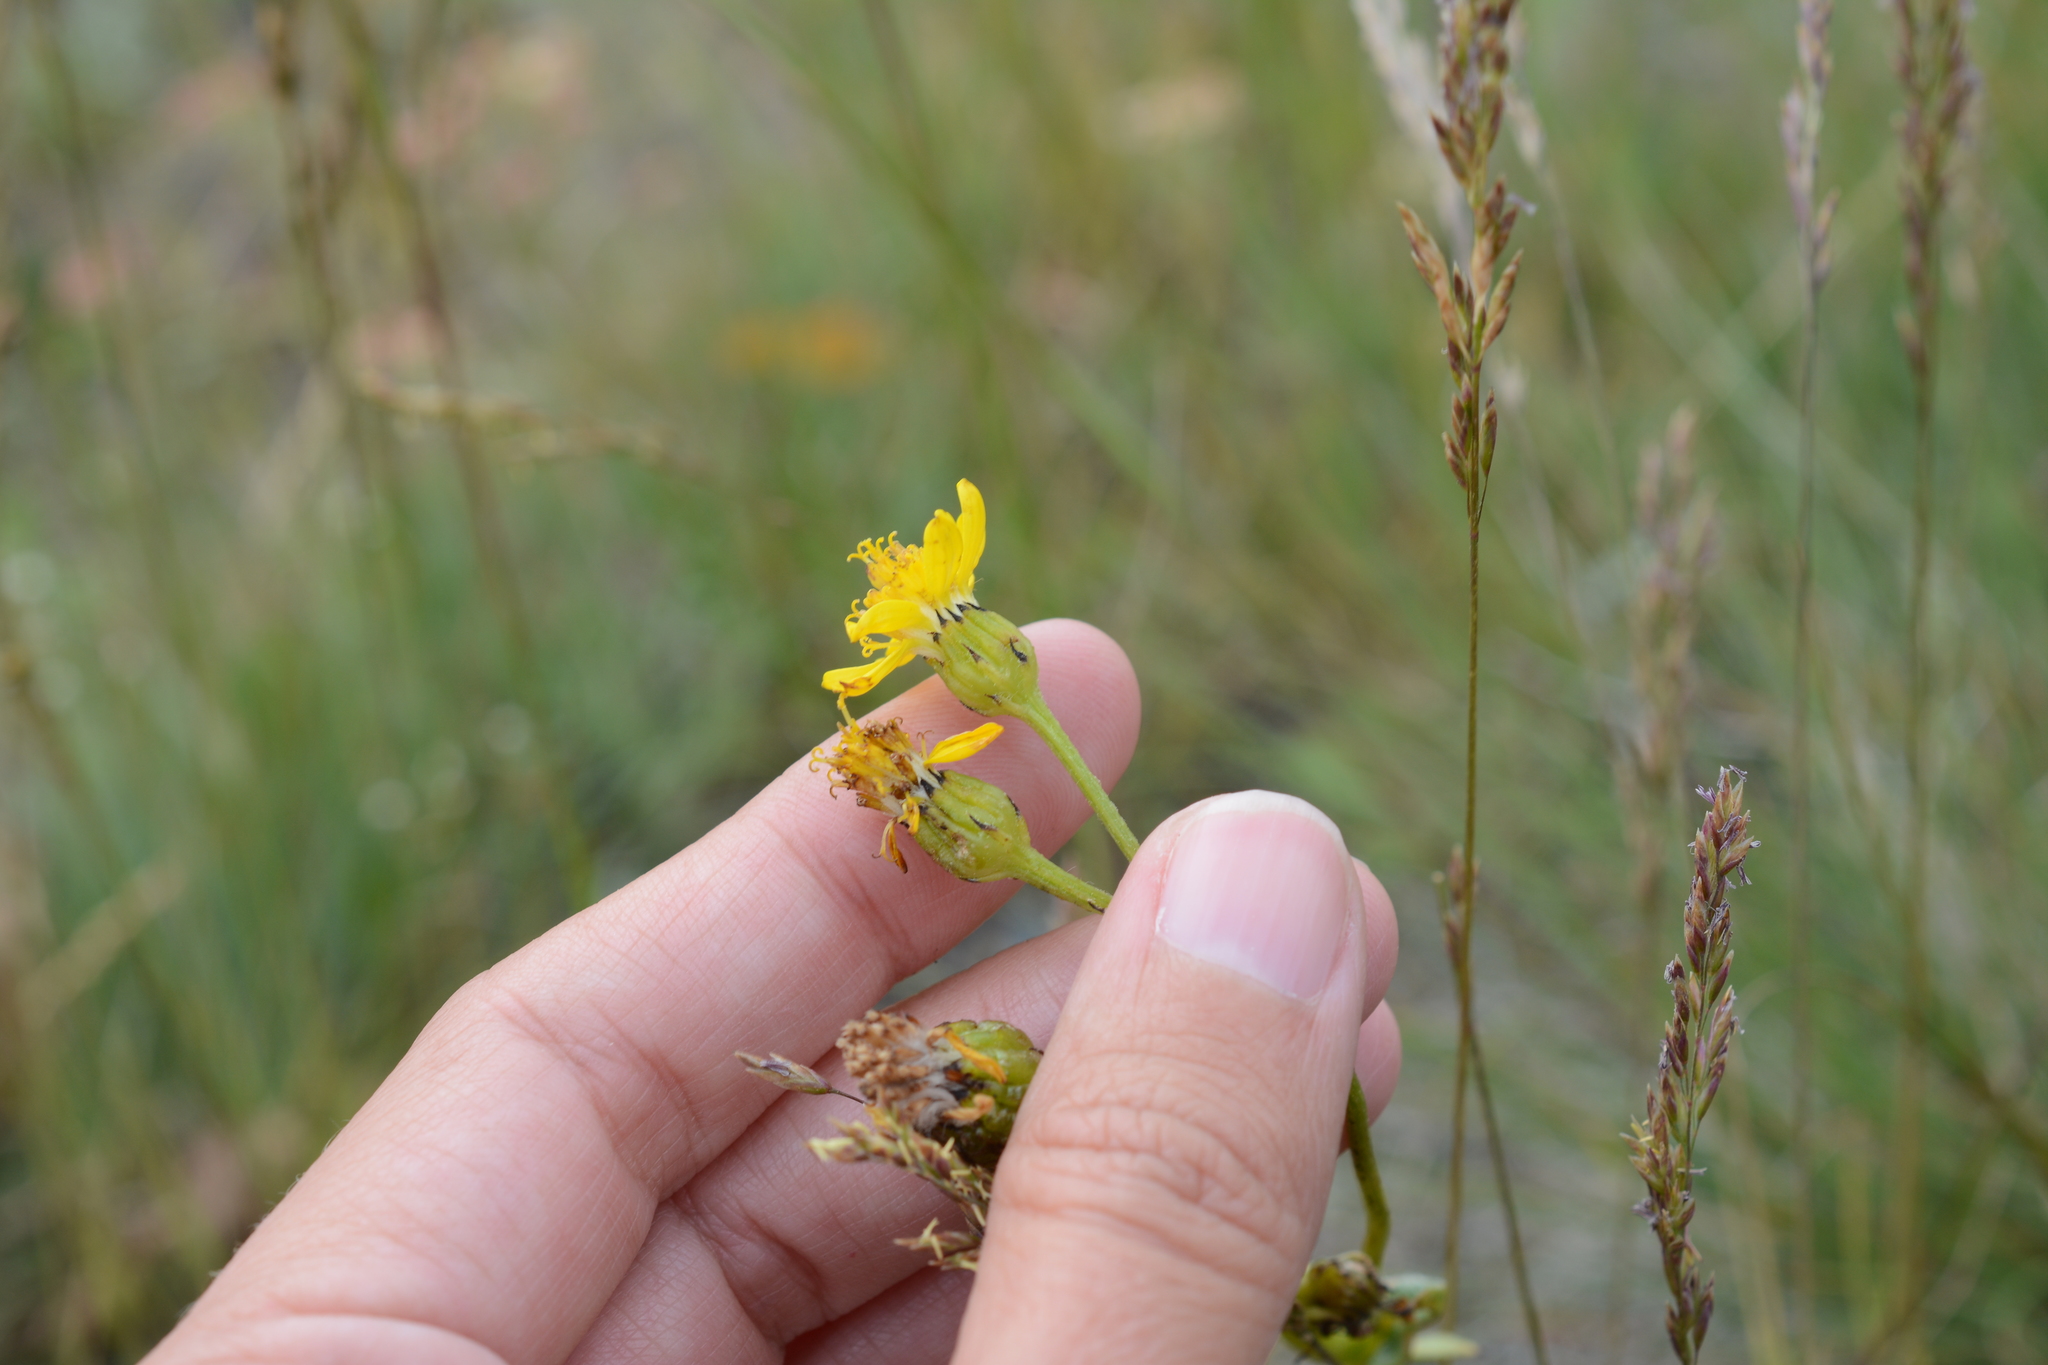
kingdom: Plantae
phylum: Tracheophyta
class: Magnoliopsida
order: Asterales
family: Asteraceae
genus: Senecio
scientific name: Senecio integerrimus
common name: Gaugeplant
